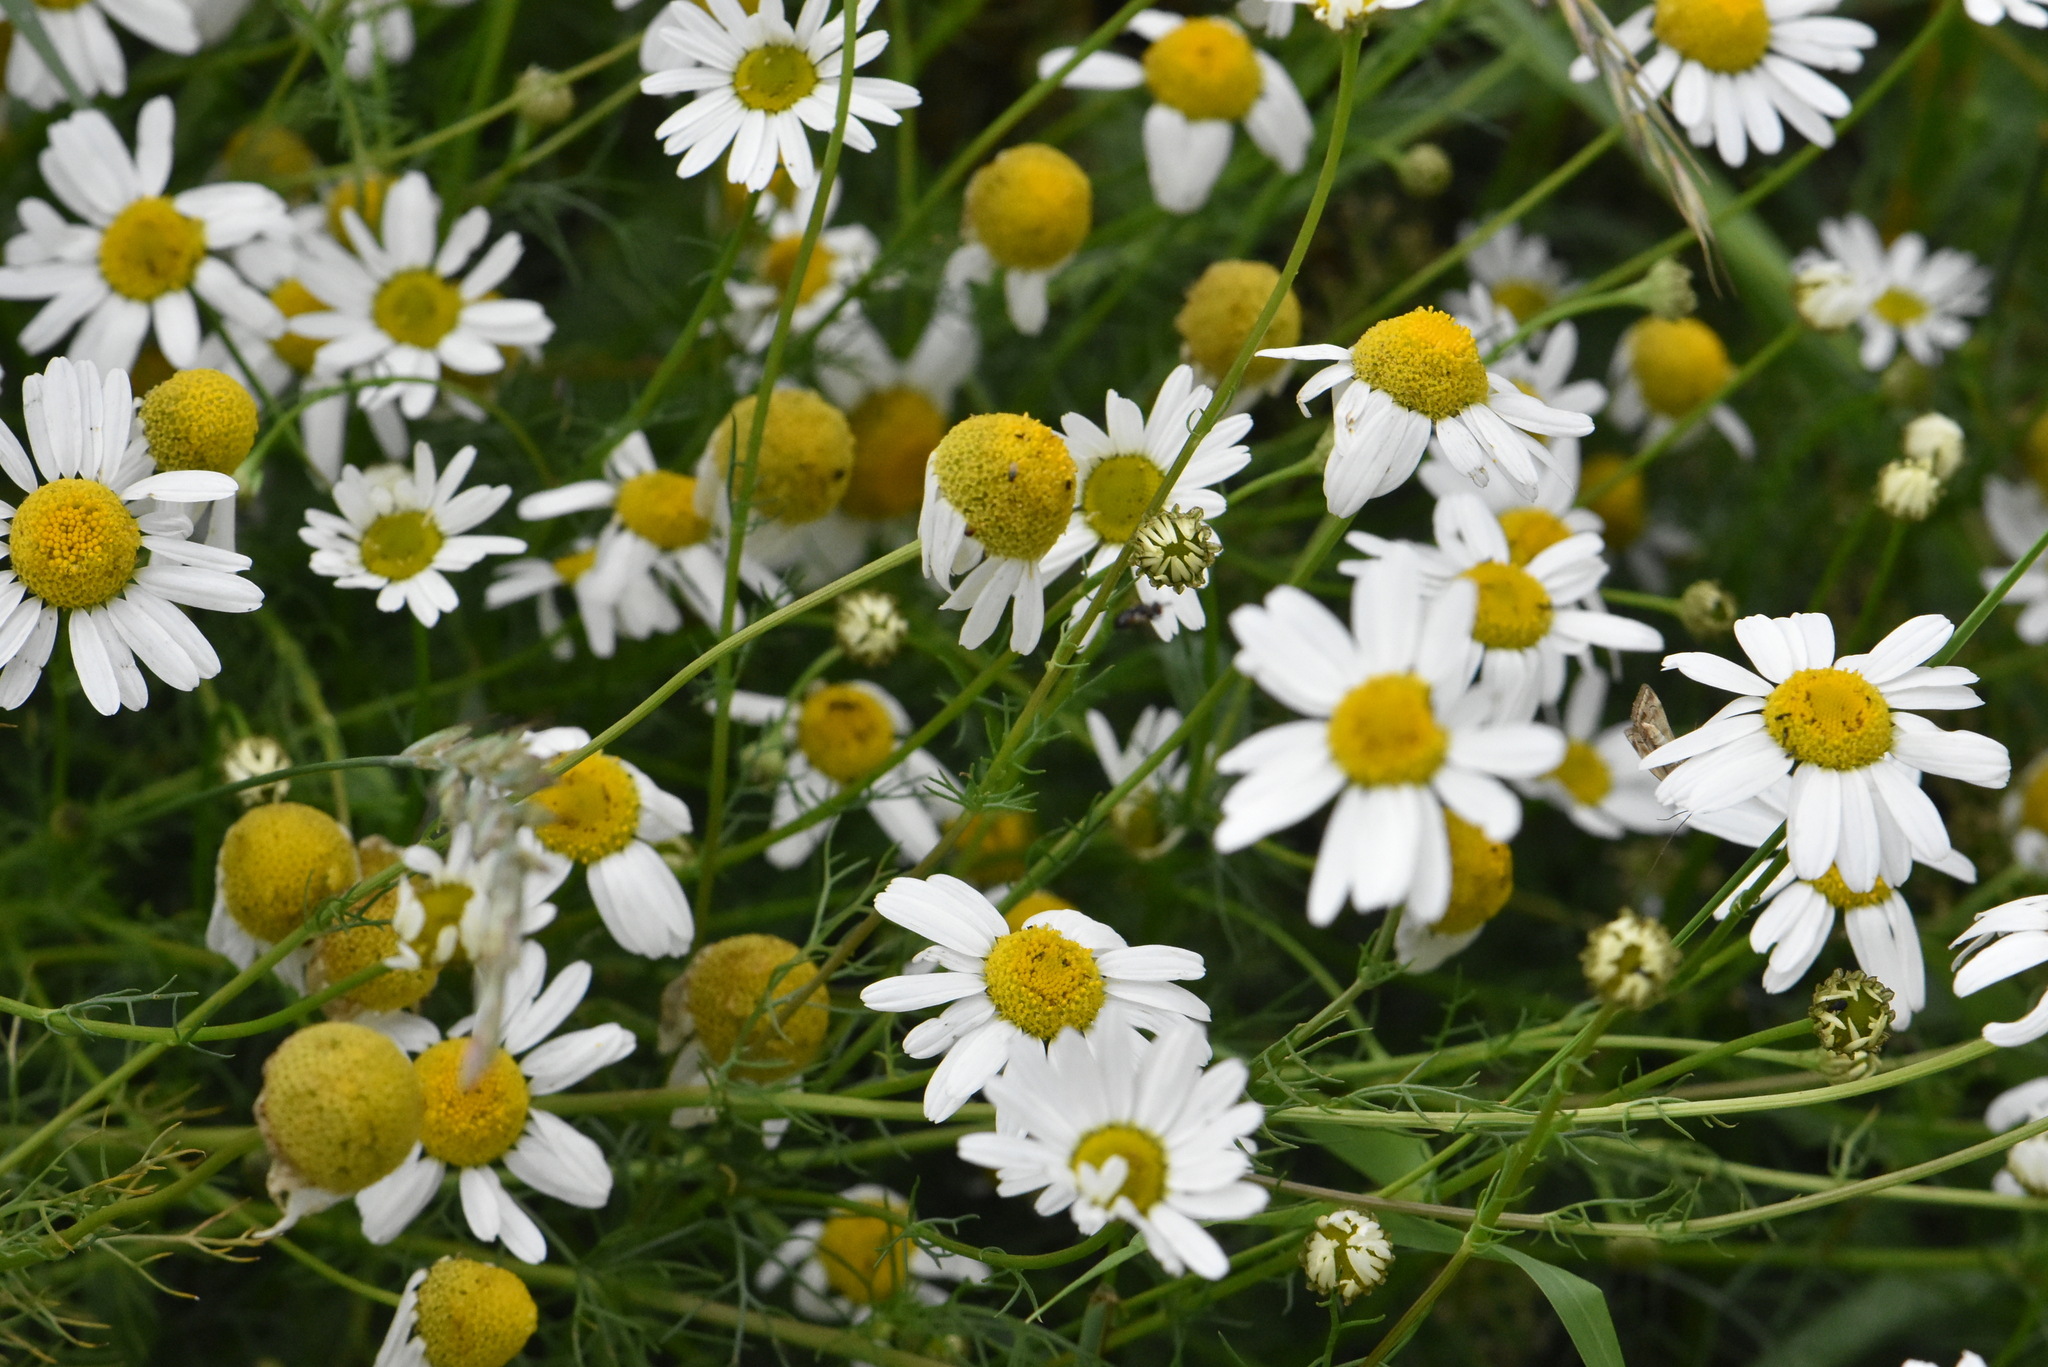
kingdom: Plantae
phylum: Tracheophyta
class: Magnoliopsida
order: Asterales
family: Asteraceae
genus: Tripleurospermum
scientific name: Tripleurospermum inodorum
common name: Scentless mayweed
